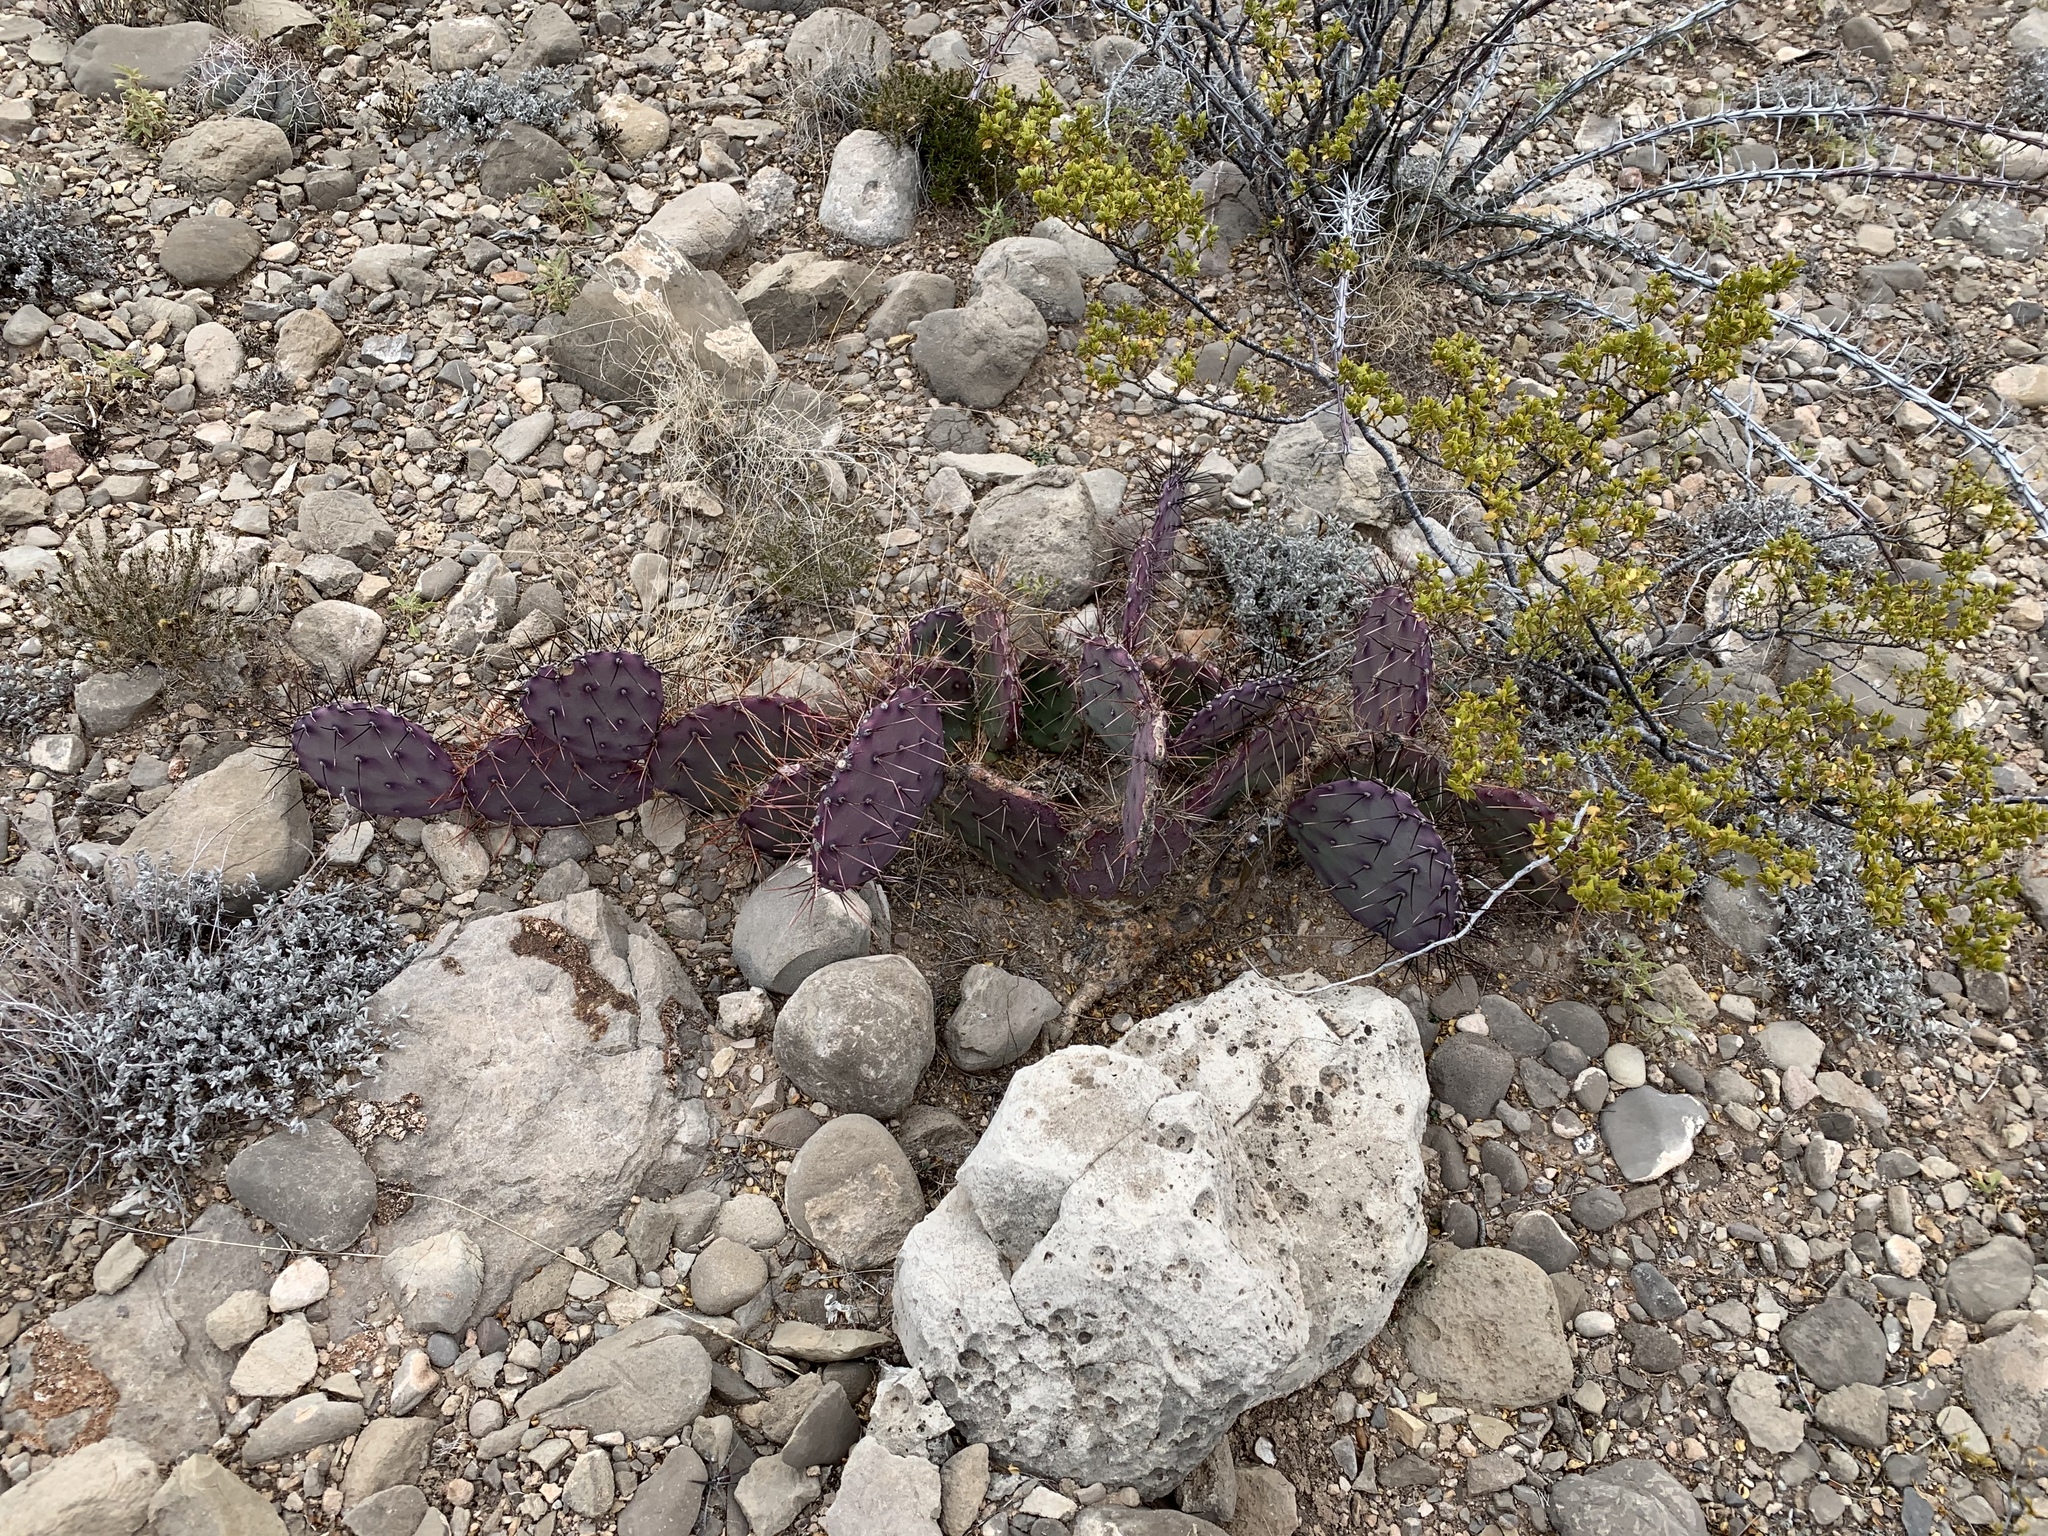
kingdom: Plantae
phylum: Tracheophyta
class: Magnoliopsida
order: Caryophyllales
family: Cactaceae
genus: Opuntia
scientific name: Opuntia macrocentra
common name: Purple prickly-pear
